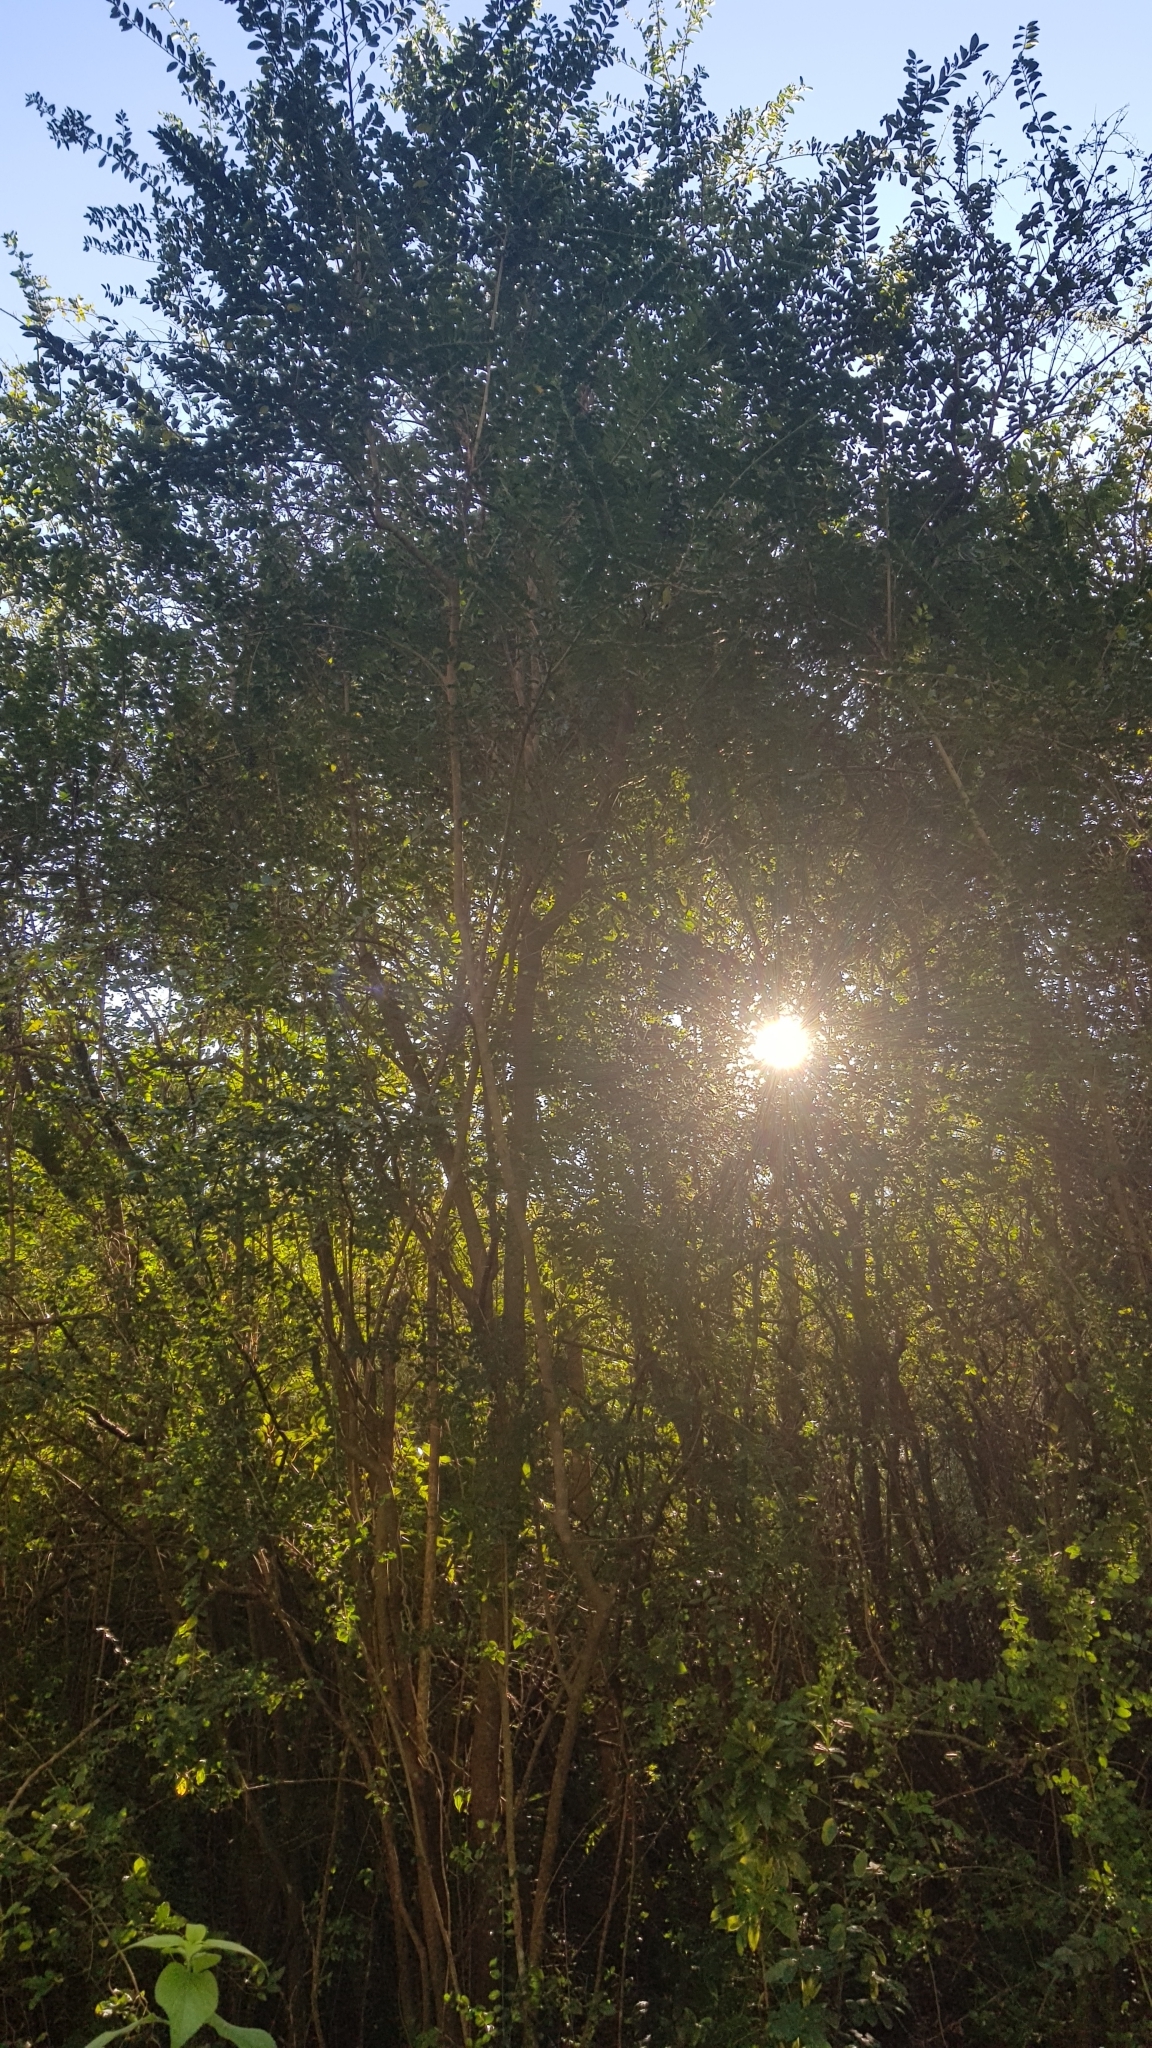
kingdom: Animalia
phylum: Chordata
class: Aves
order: Passeriformes
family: Zosteropidae
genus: Zosterops
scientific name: Zosterops lateralis
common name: Silvereye
